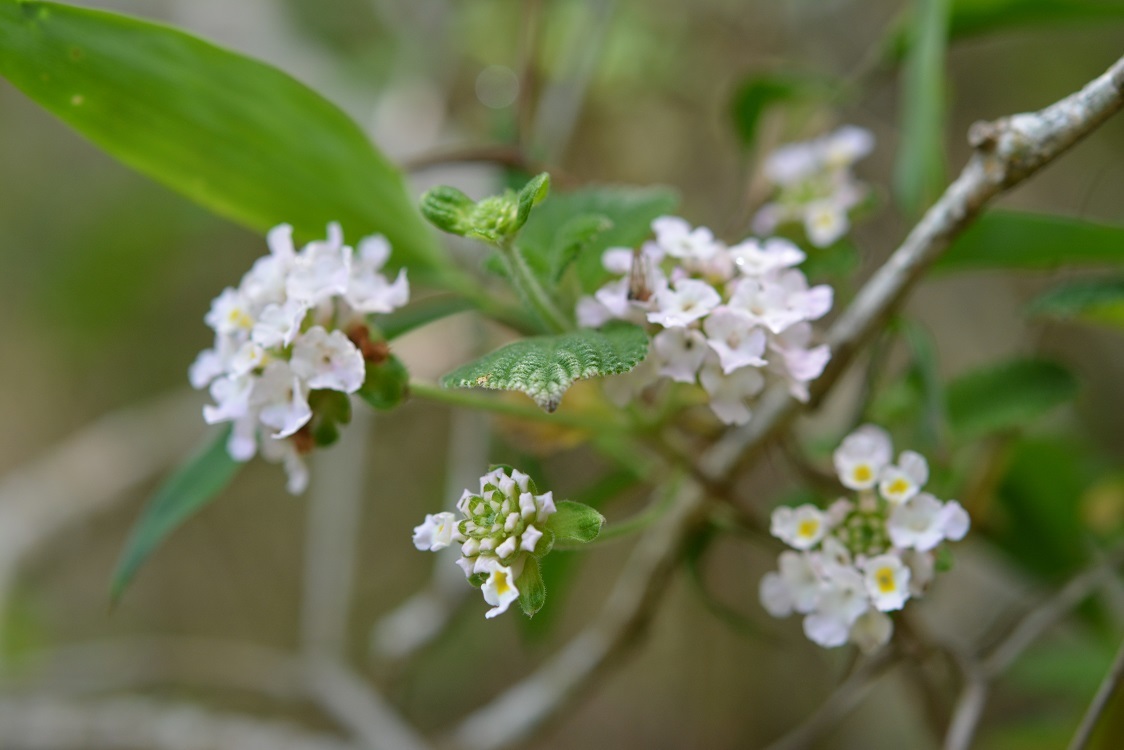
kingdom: Plantae
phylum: Tracheophyta
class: Magnoliopsida
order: Lamiales
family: Verbenaceae
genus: Lantana
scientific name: Lantana hirta
